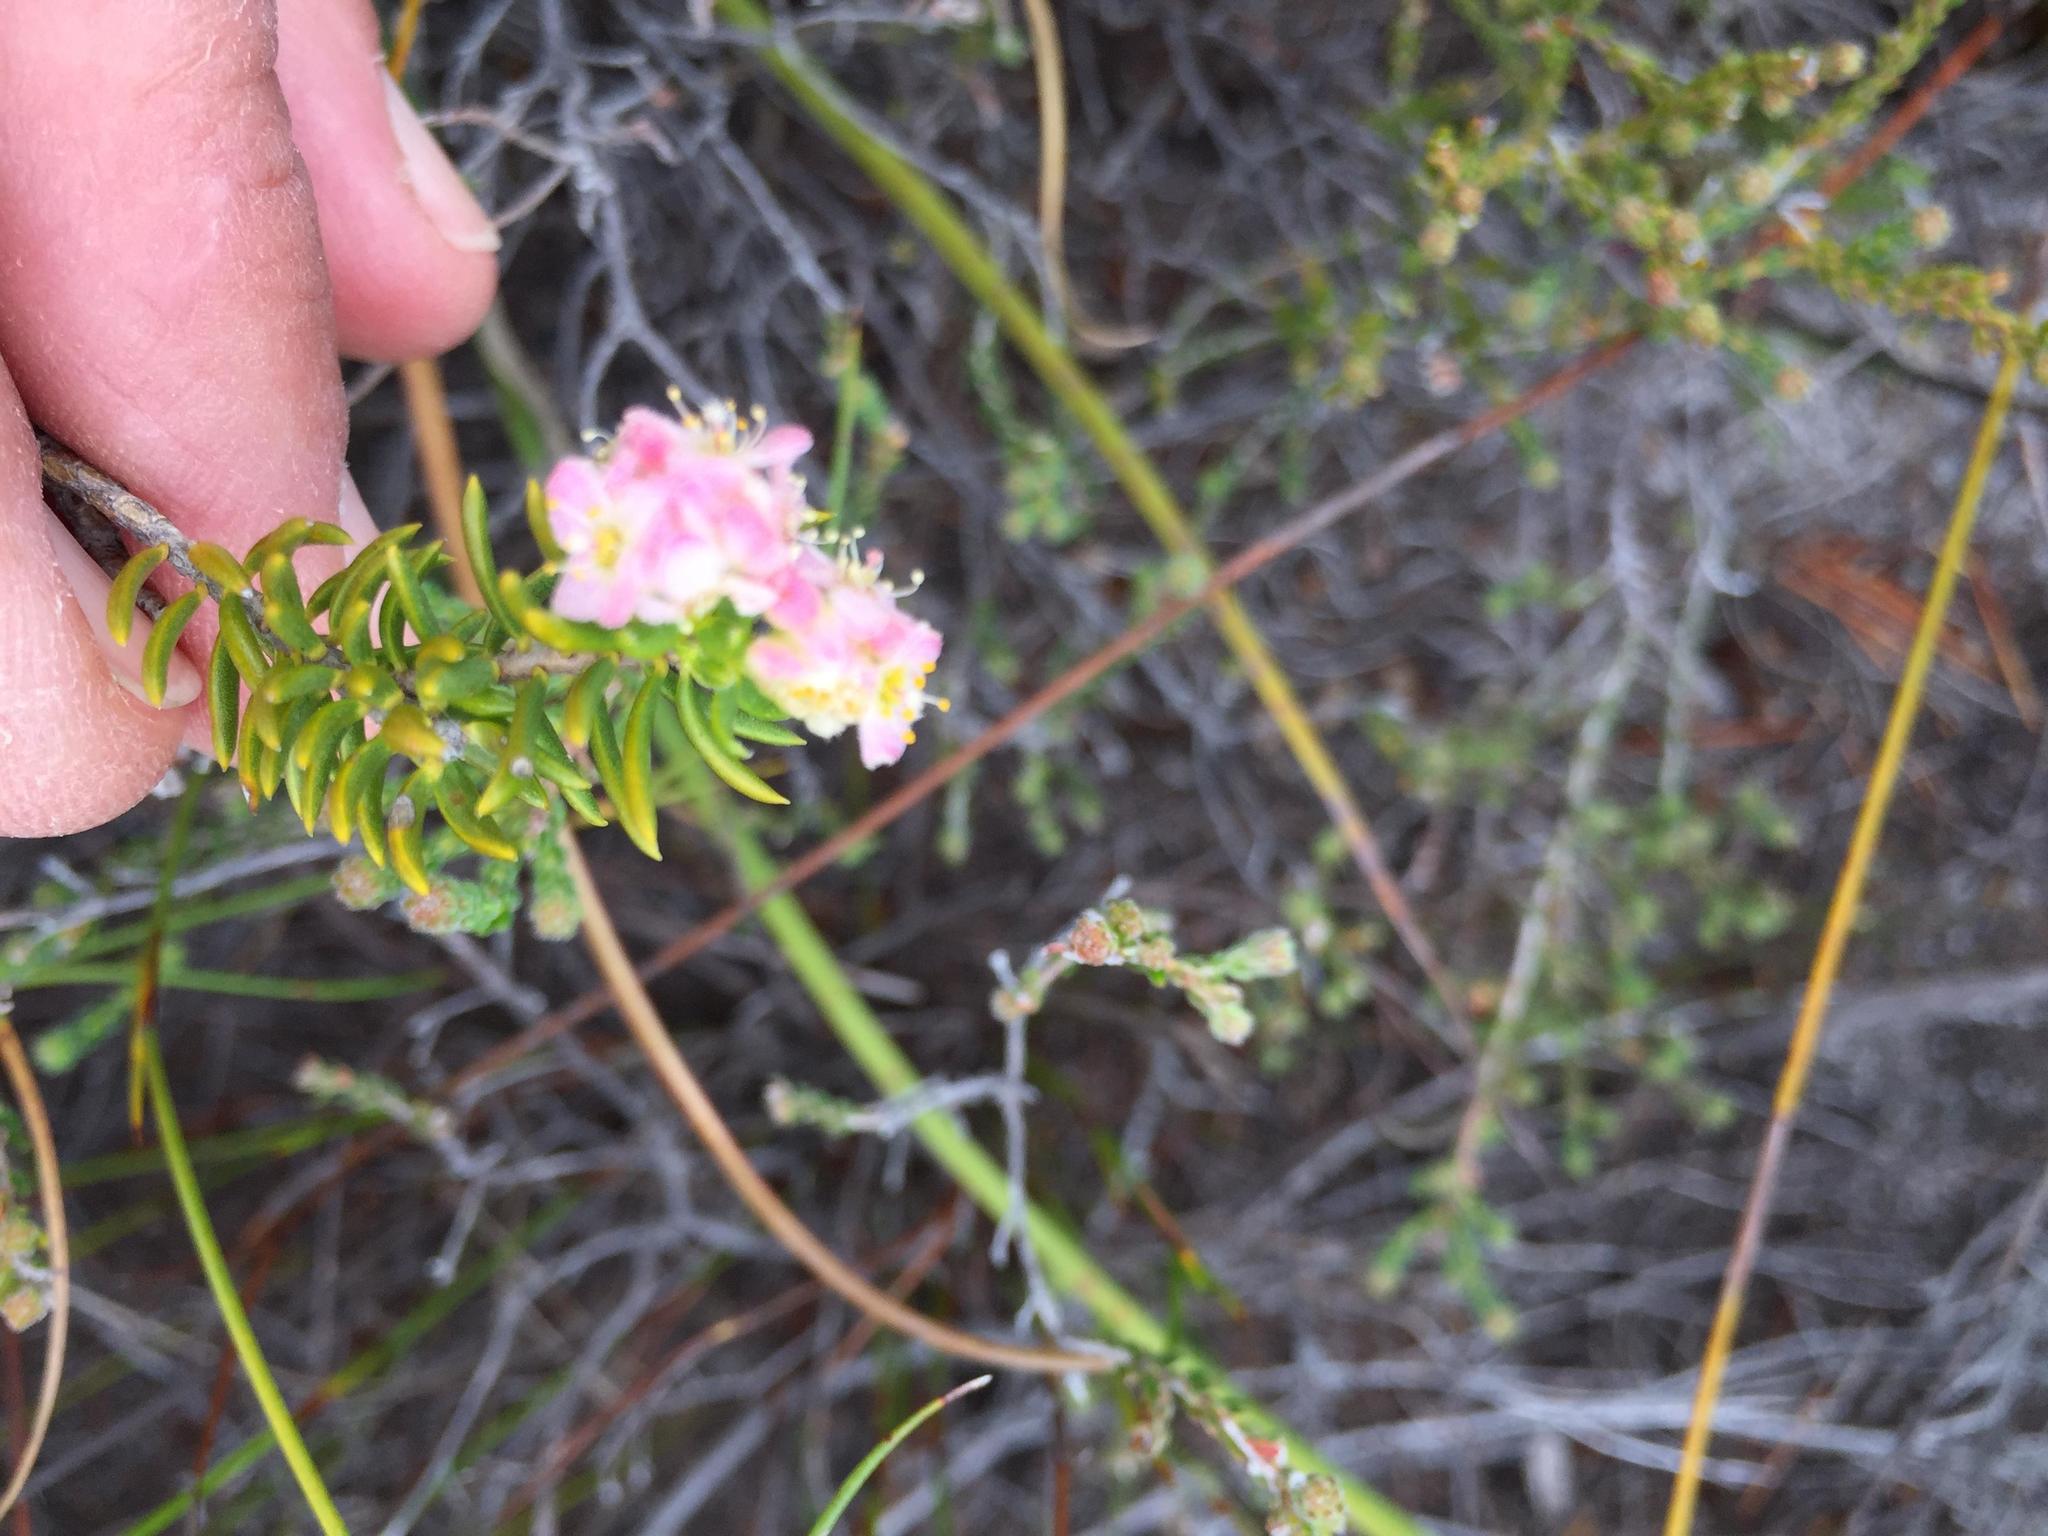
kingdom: Plantae
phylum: Tracheophyta
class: Magnoliopsida
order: Malvales
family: Thymelaeaceae
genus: Lachnaea
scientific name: Lachnaea densiflora
